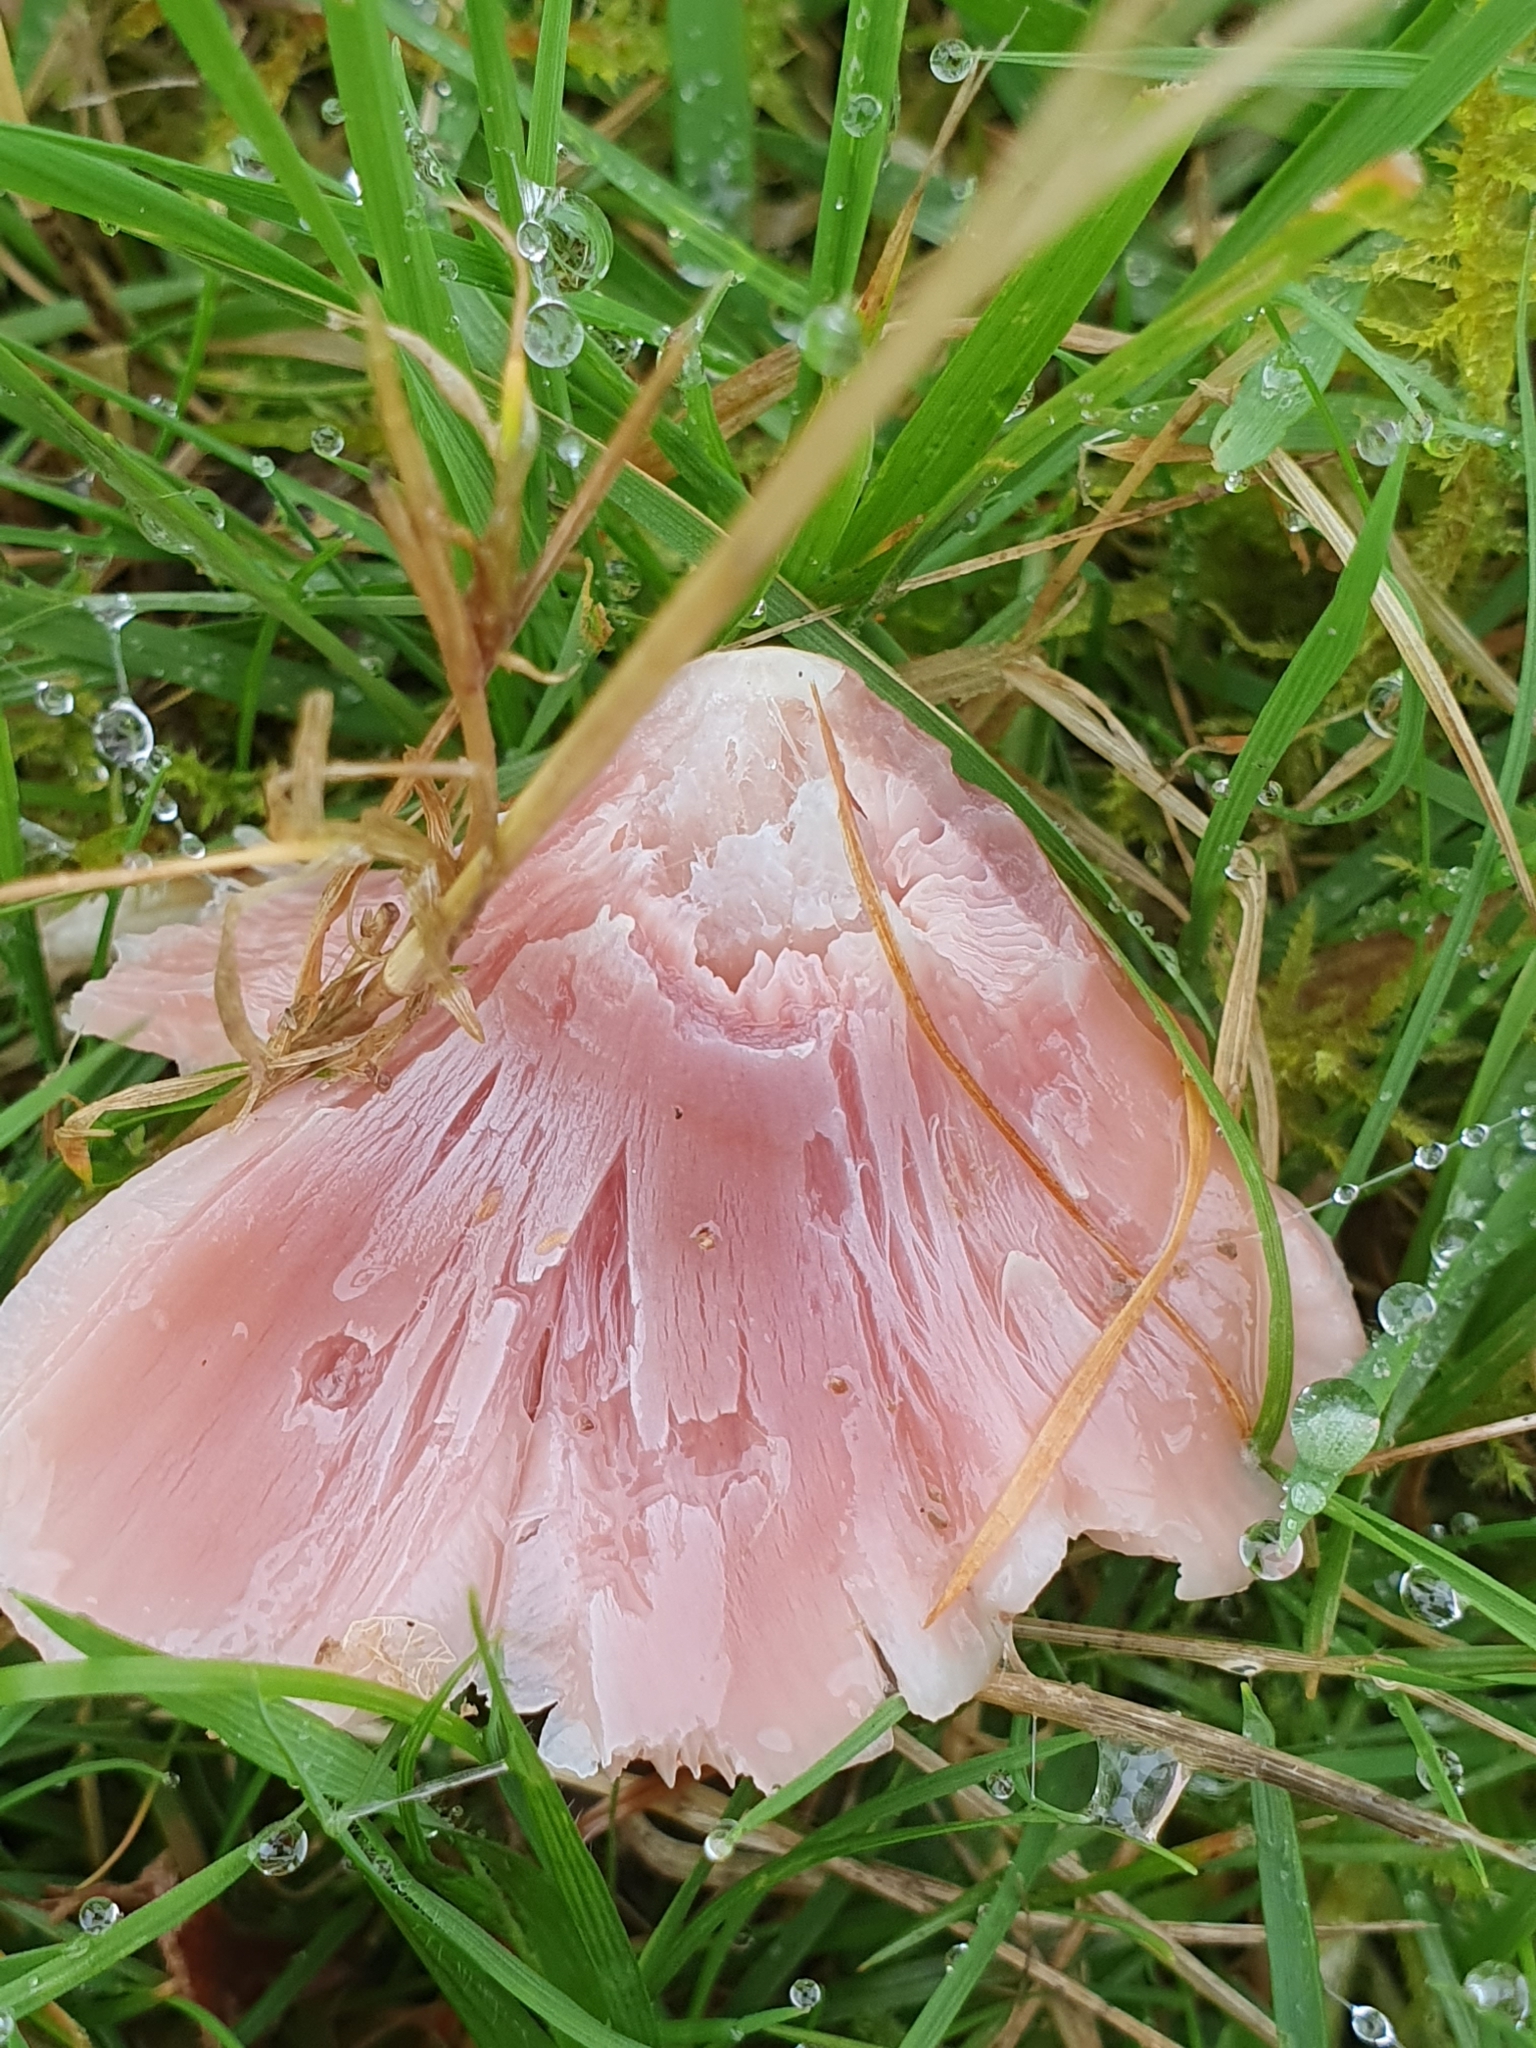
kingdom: Fungi
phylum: Basidiomycota
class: Agaricomycetes
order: Agaricales
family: Hygrophoraceae
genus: Porpolomopsis
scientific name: Porpolomopsis calyptriformis
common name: Pink waxcap
